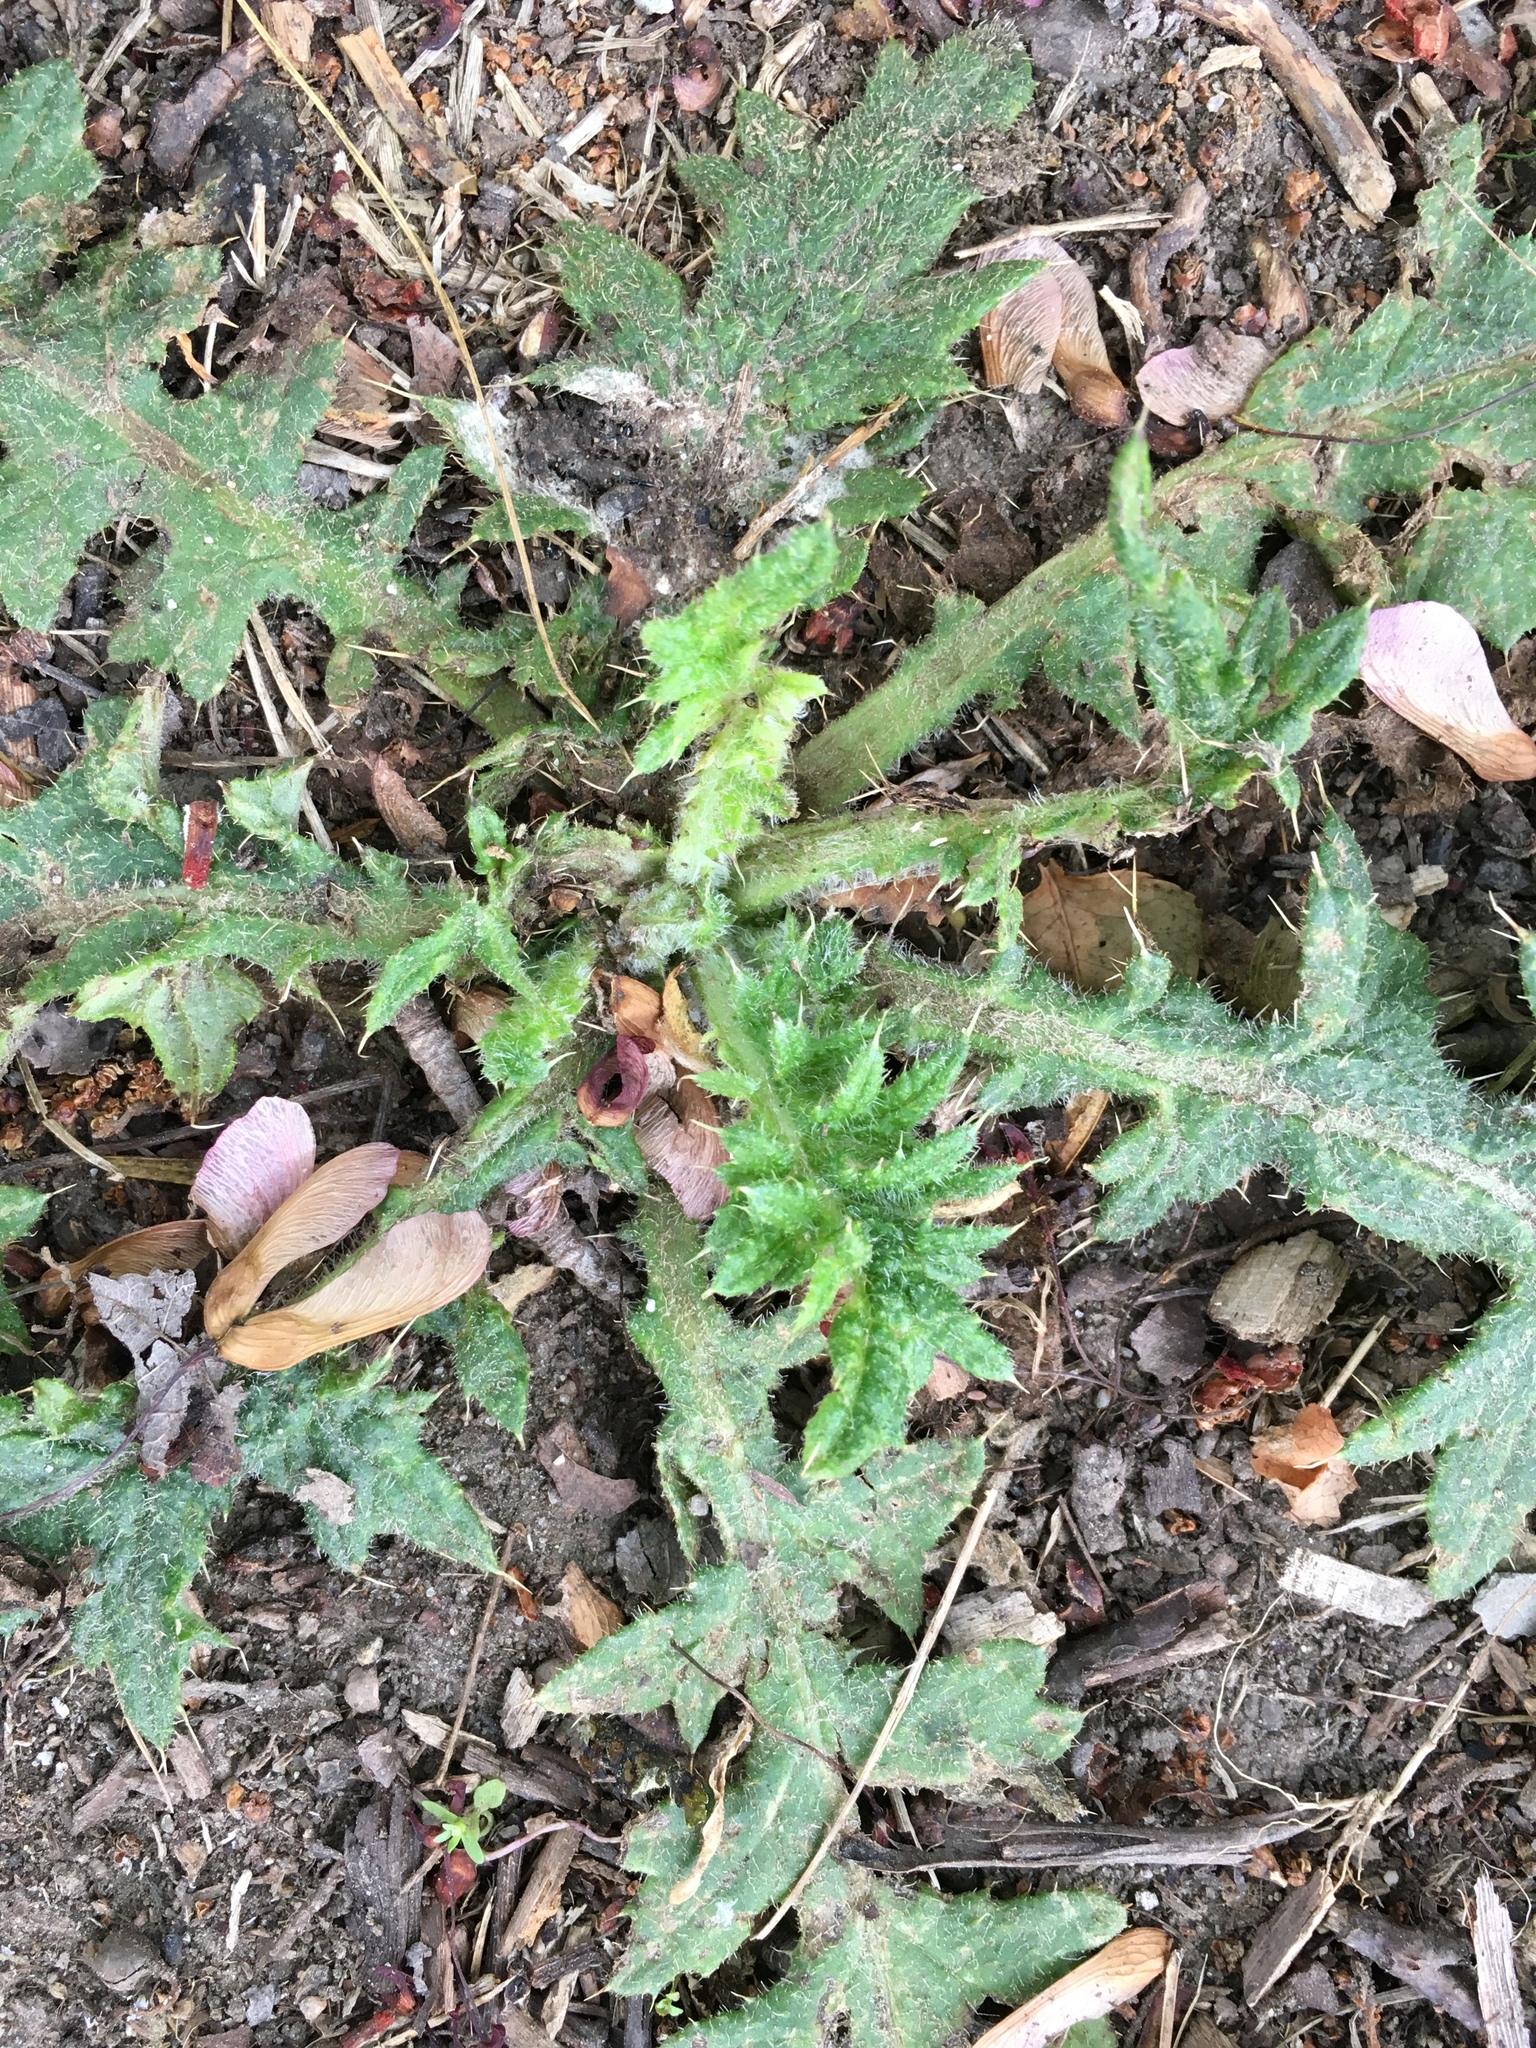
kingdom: Plantae
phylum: Tracheophyta
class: Magnoliopsida
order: Asterales
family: Asteraceae
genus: Cirsium
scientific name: Cirsium vulgare
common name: Bull thistle
